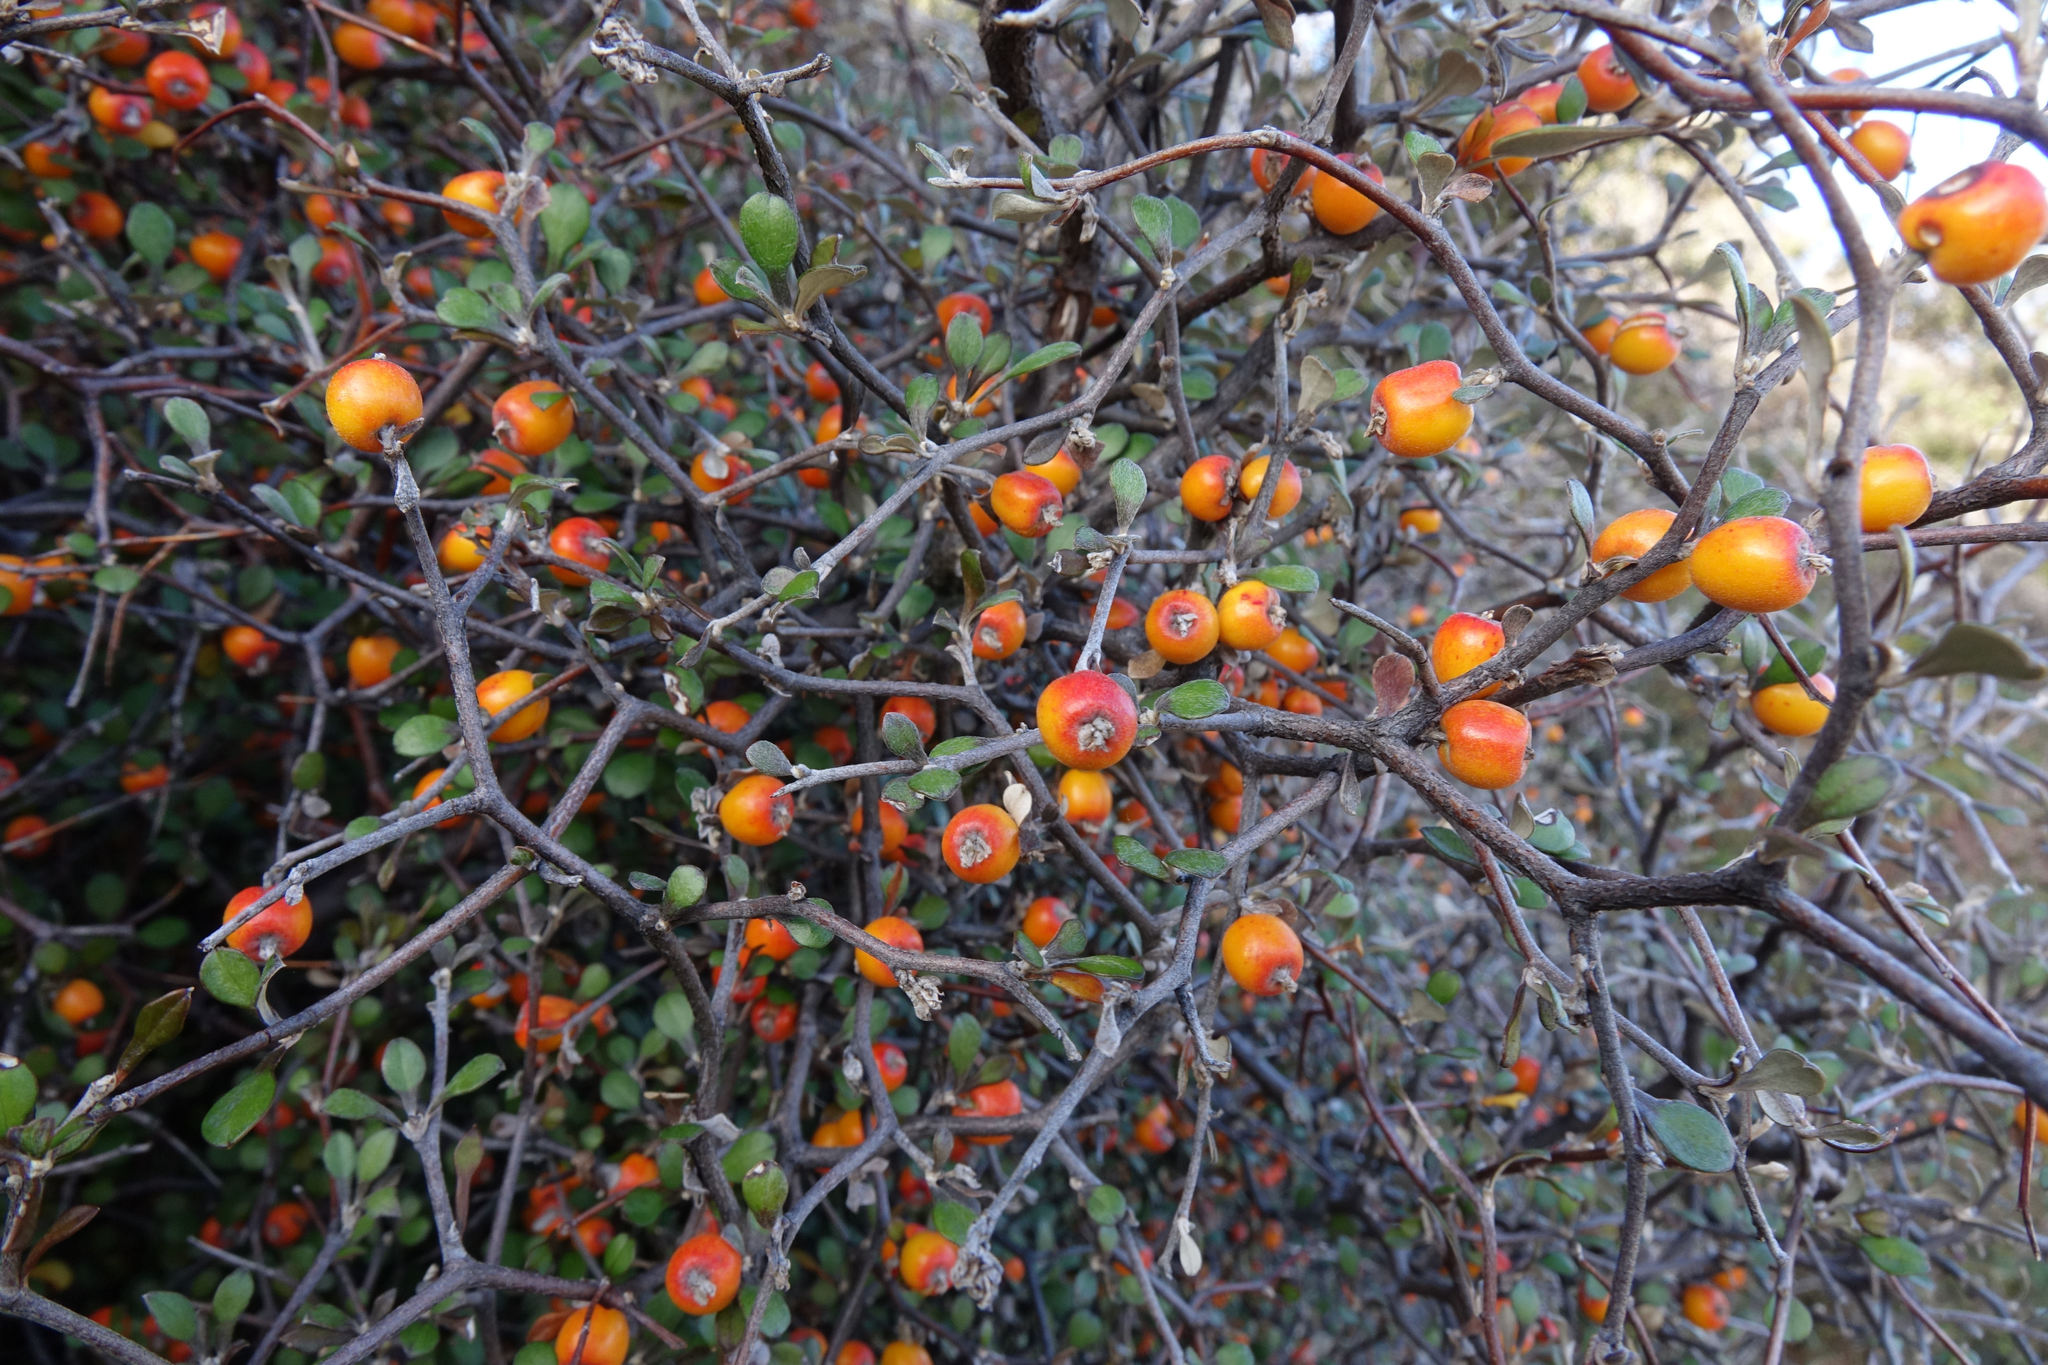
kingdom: Plantae
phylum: Tracheophyta
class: Magnoliopsida
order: Asterales
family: Argophyllaceae
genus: Corokia
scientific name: Corokia cotoneaster
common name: Wire nettingbush
